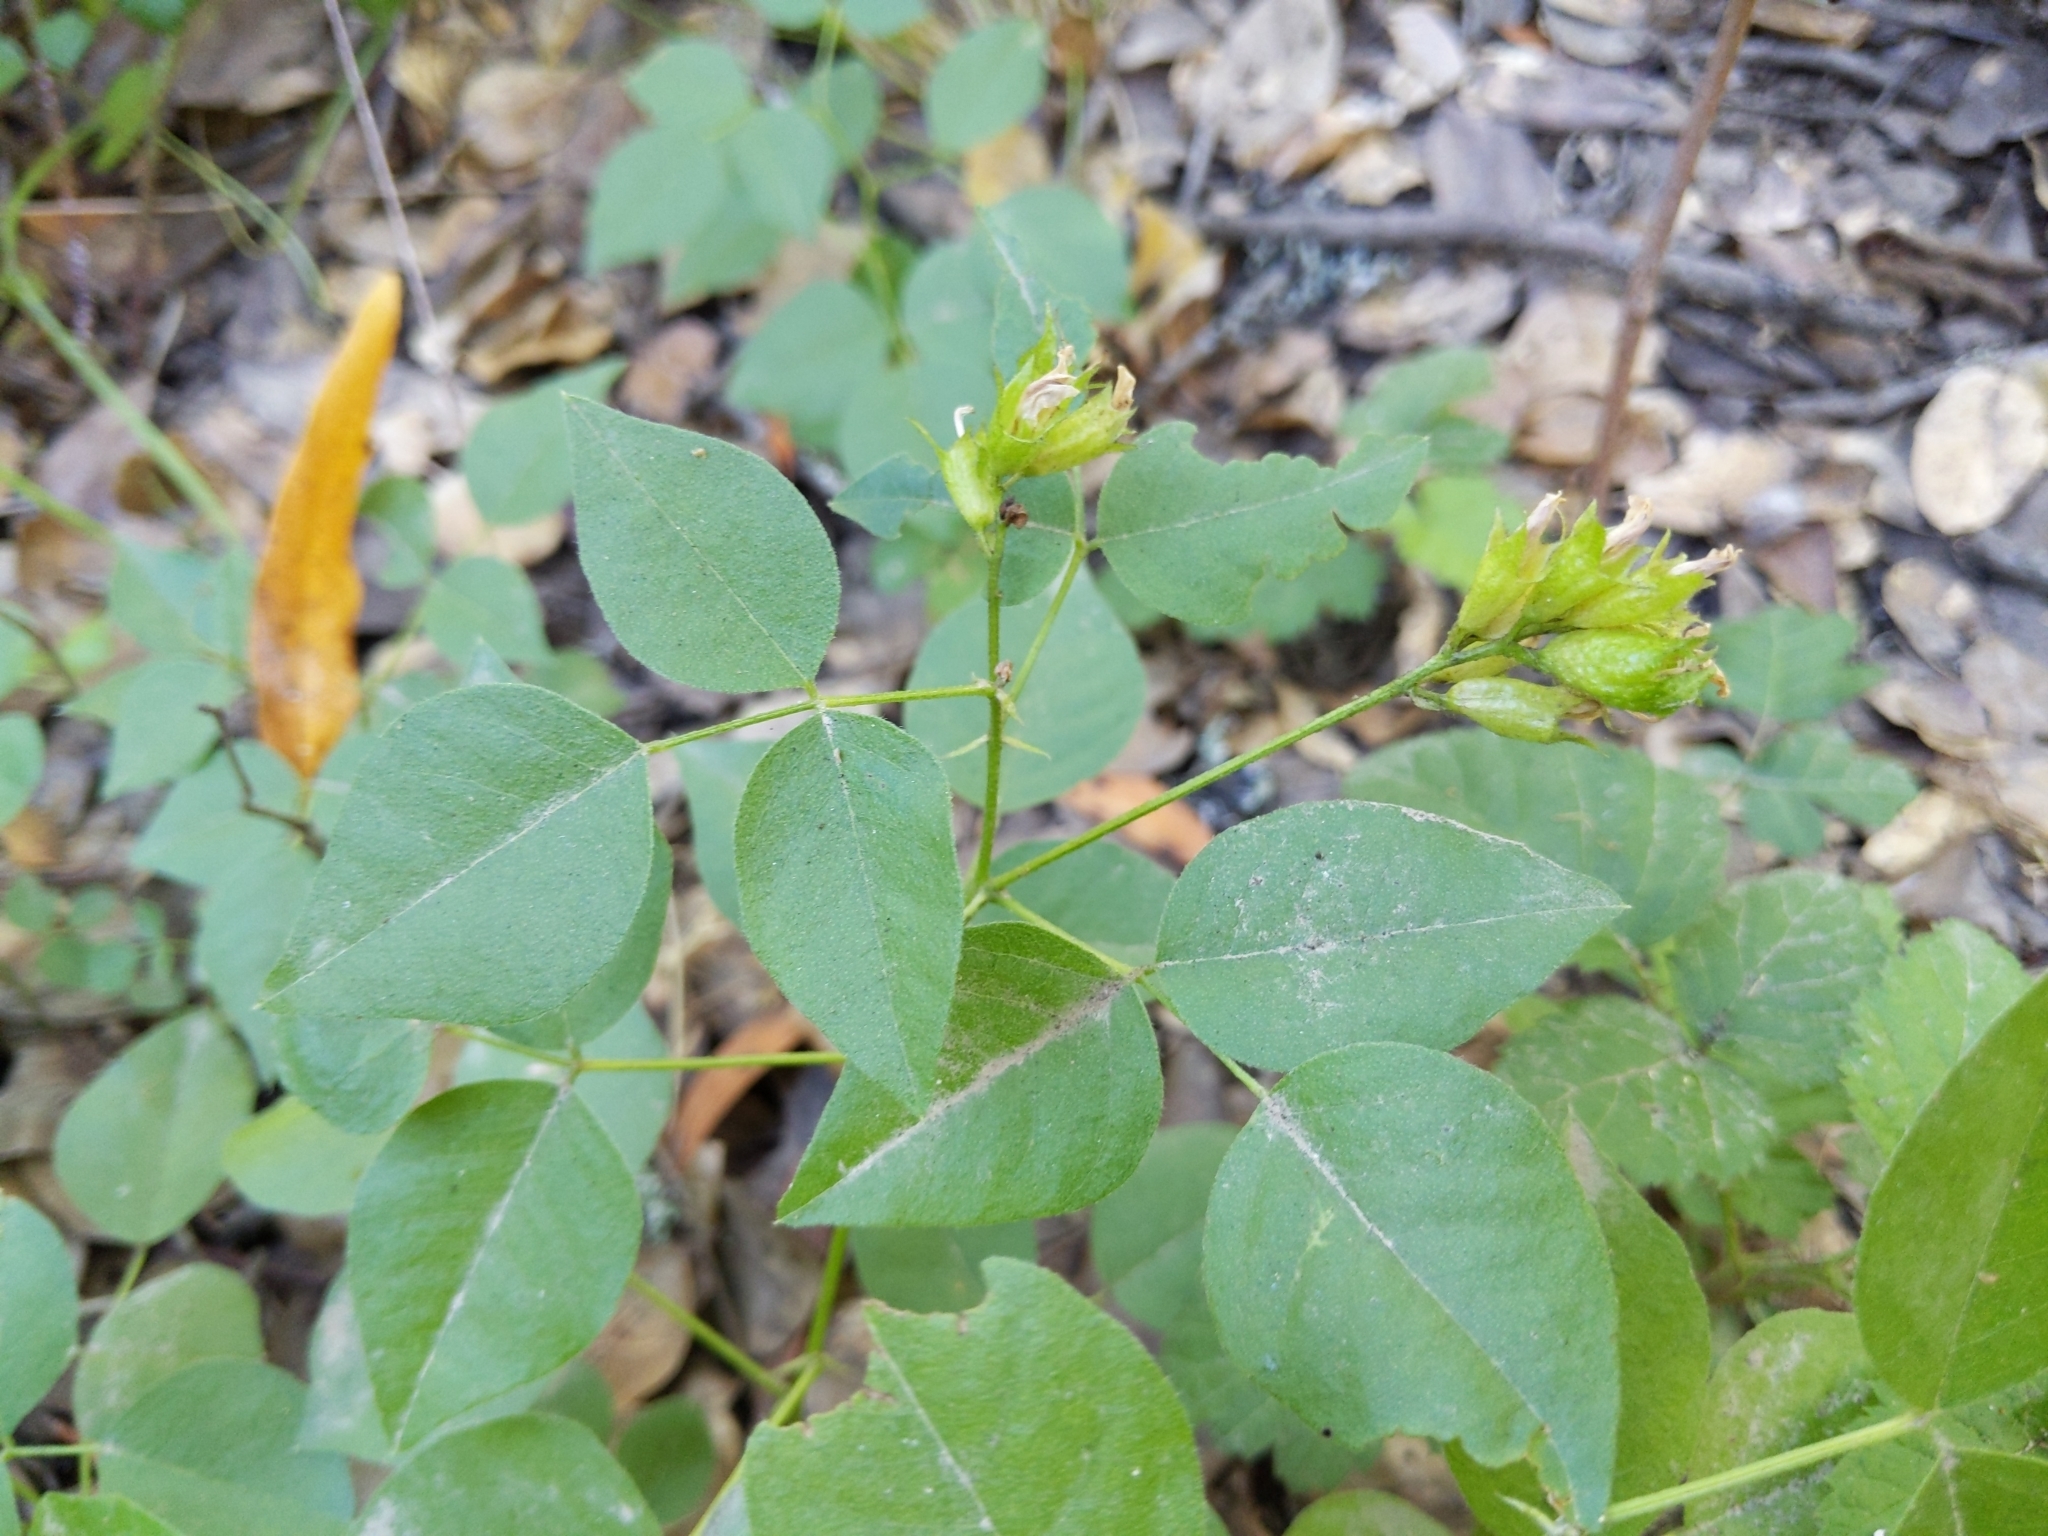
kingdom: Plantae
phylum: Tracheophyta
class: Magnoliopsida
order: Fabales
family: Fabaceae
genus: Rupertia
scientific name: Rupertia physodes
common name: California-tea
